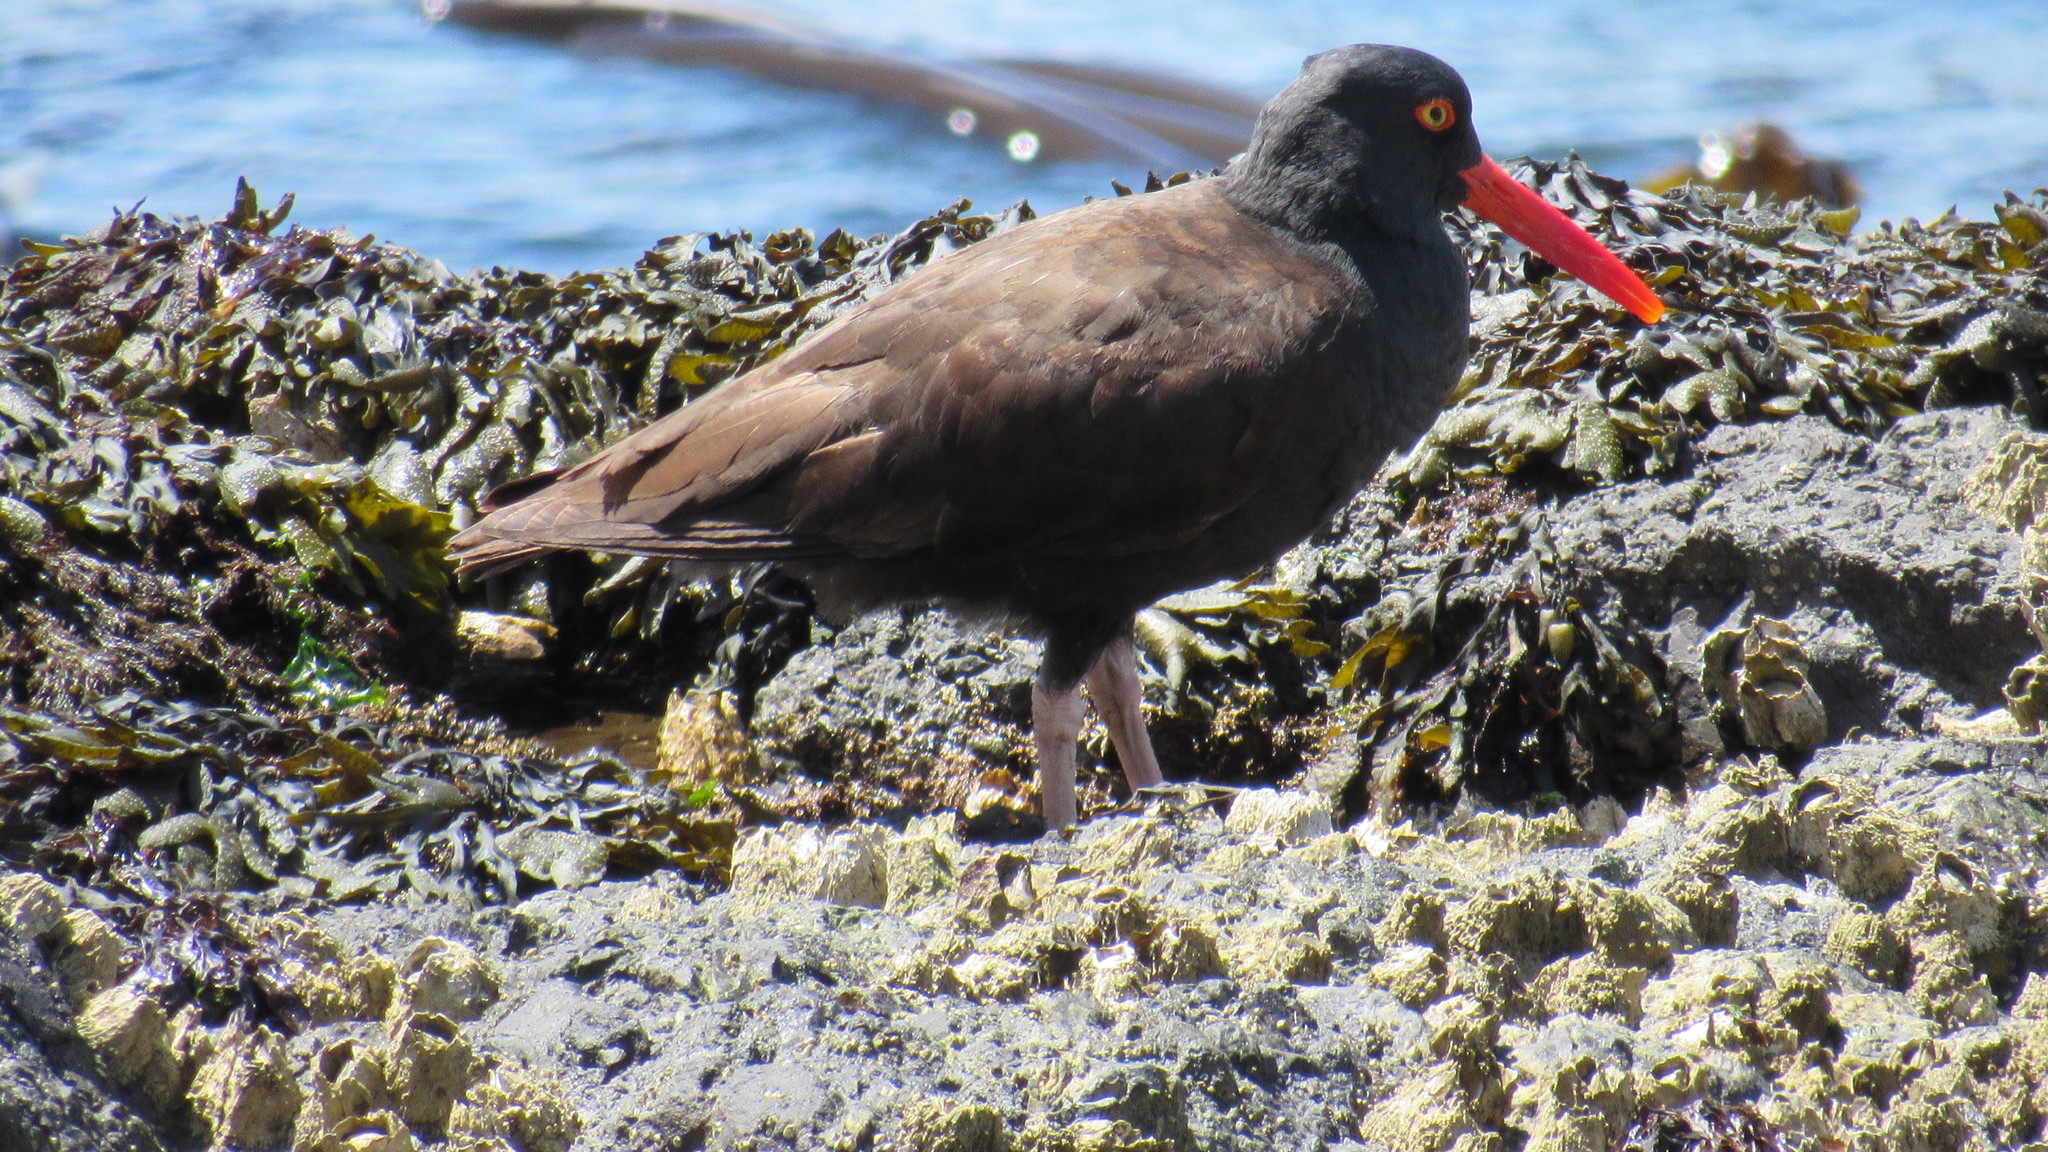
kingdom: Animalia
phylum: Chordata
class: Aves
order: Charadriiformes
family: Haematopodidae
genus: Haematopus
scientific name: Haematopus bachmani
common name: Black oystercatcher
